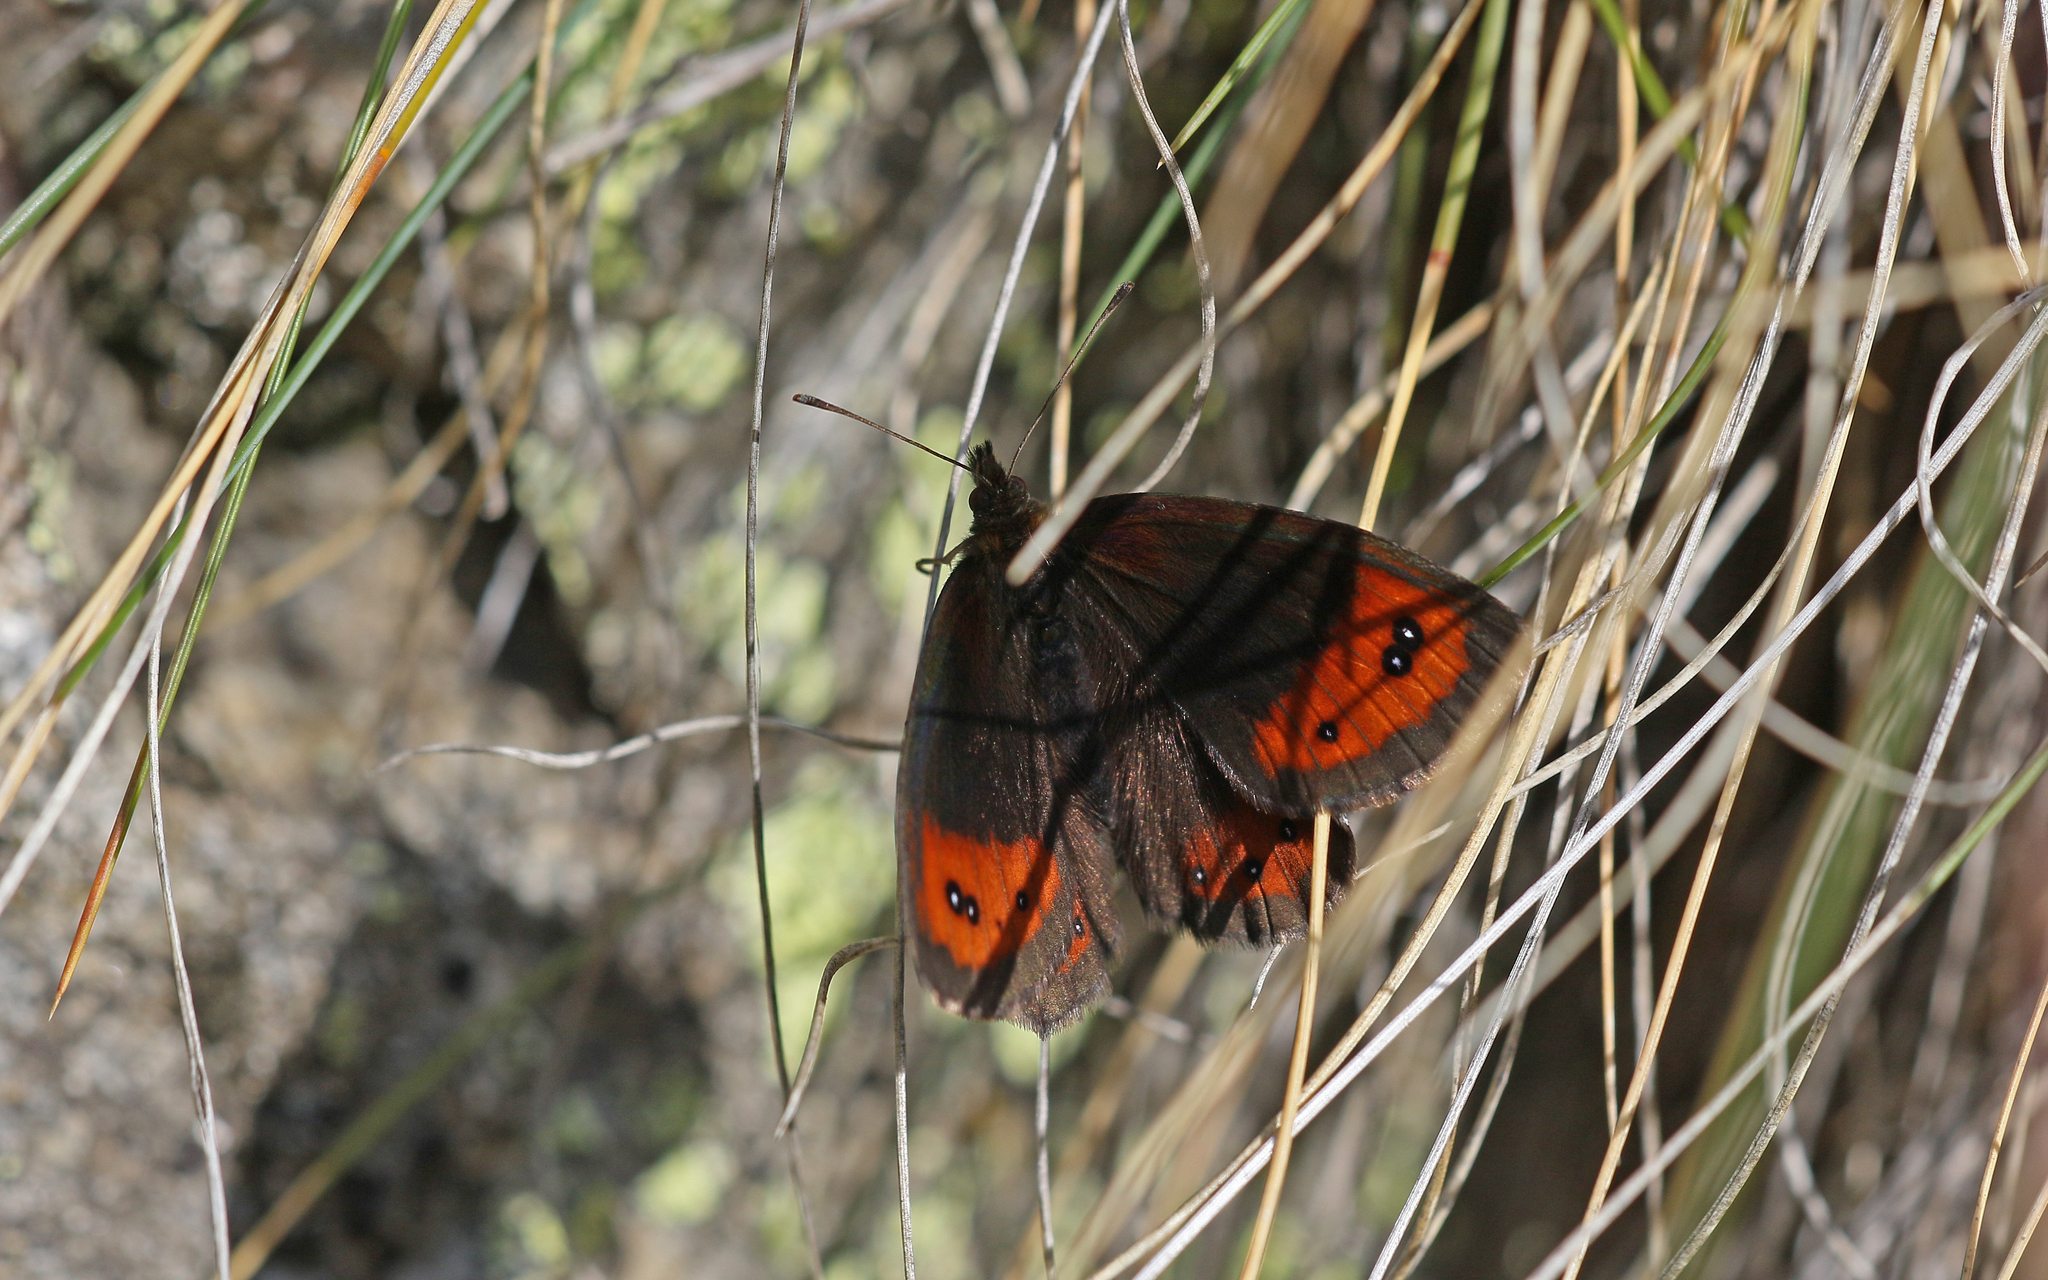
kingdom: Animalia
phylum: Arthropoda
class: Insecta
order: Lepidoptera
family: Nymphalidae
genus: Erebia
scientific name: Erebia montanus
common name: Marbled ringlet
